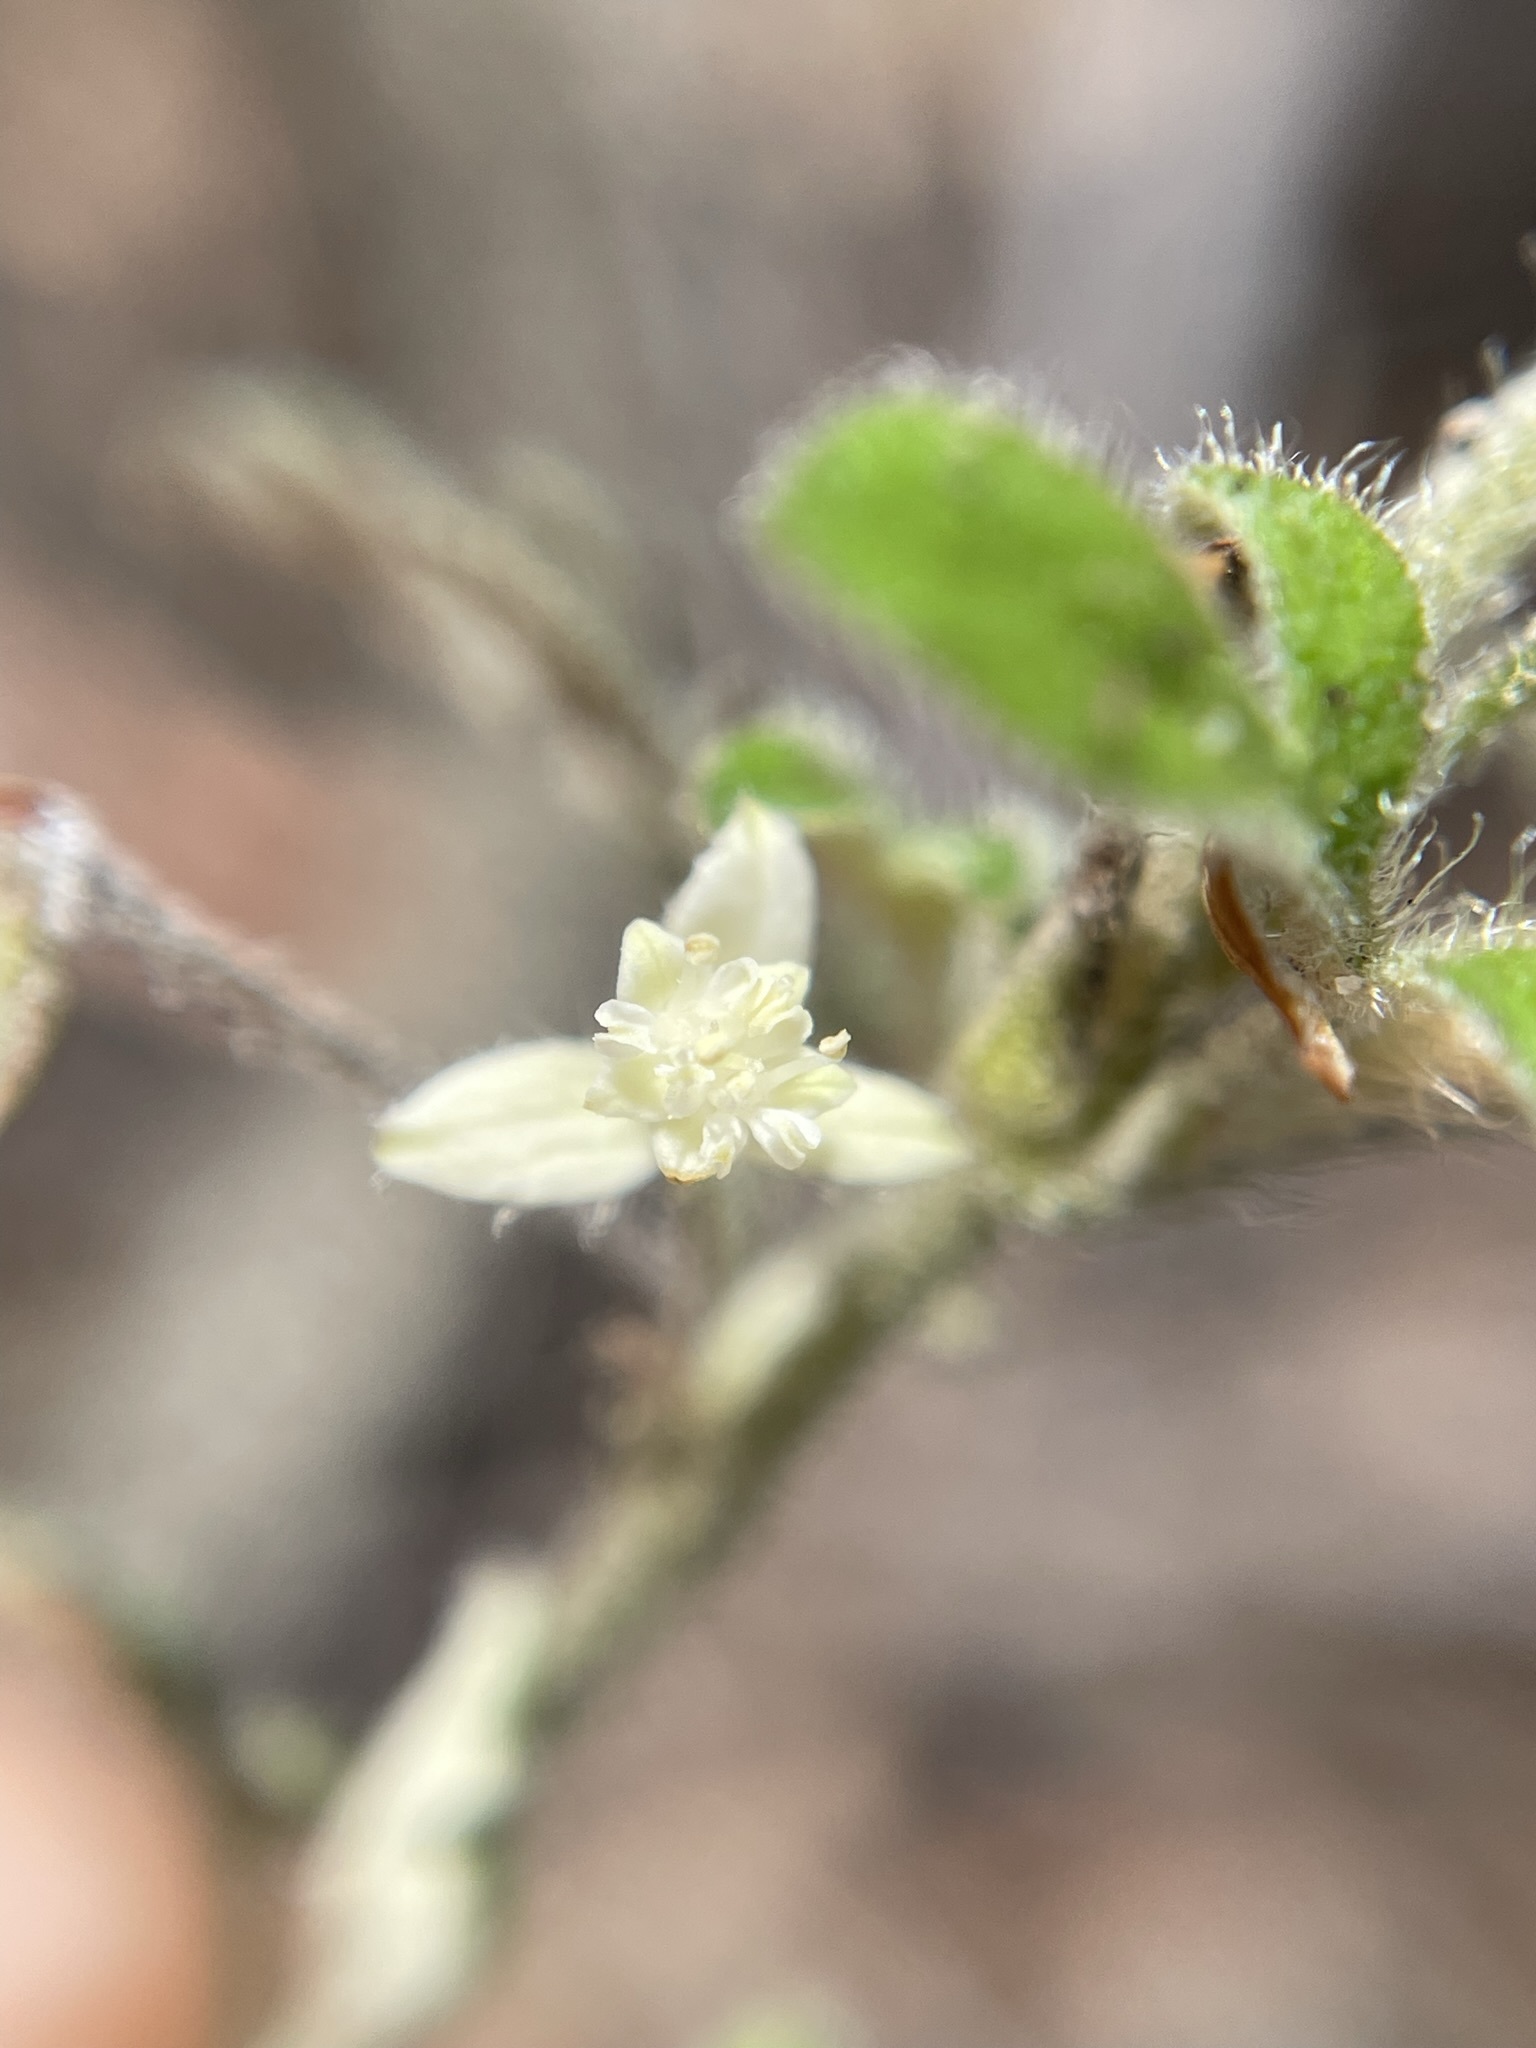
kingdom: Plantae
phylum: Tracheophyta
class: Magnoliopsida
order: Apiales
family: Apiaceae
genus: Xanthosia
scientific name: Xanthosia pilosa
